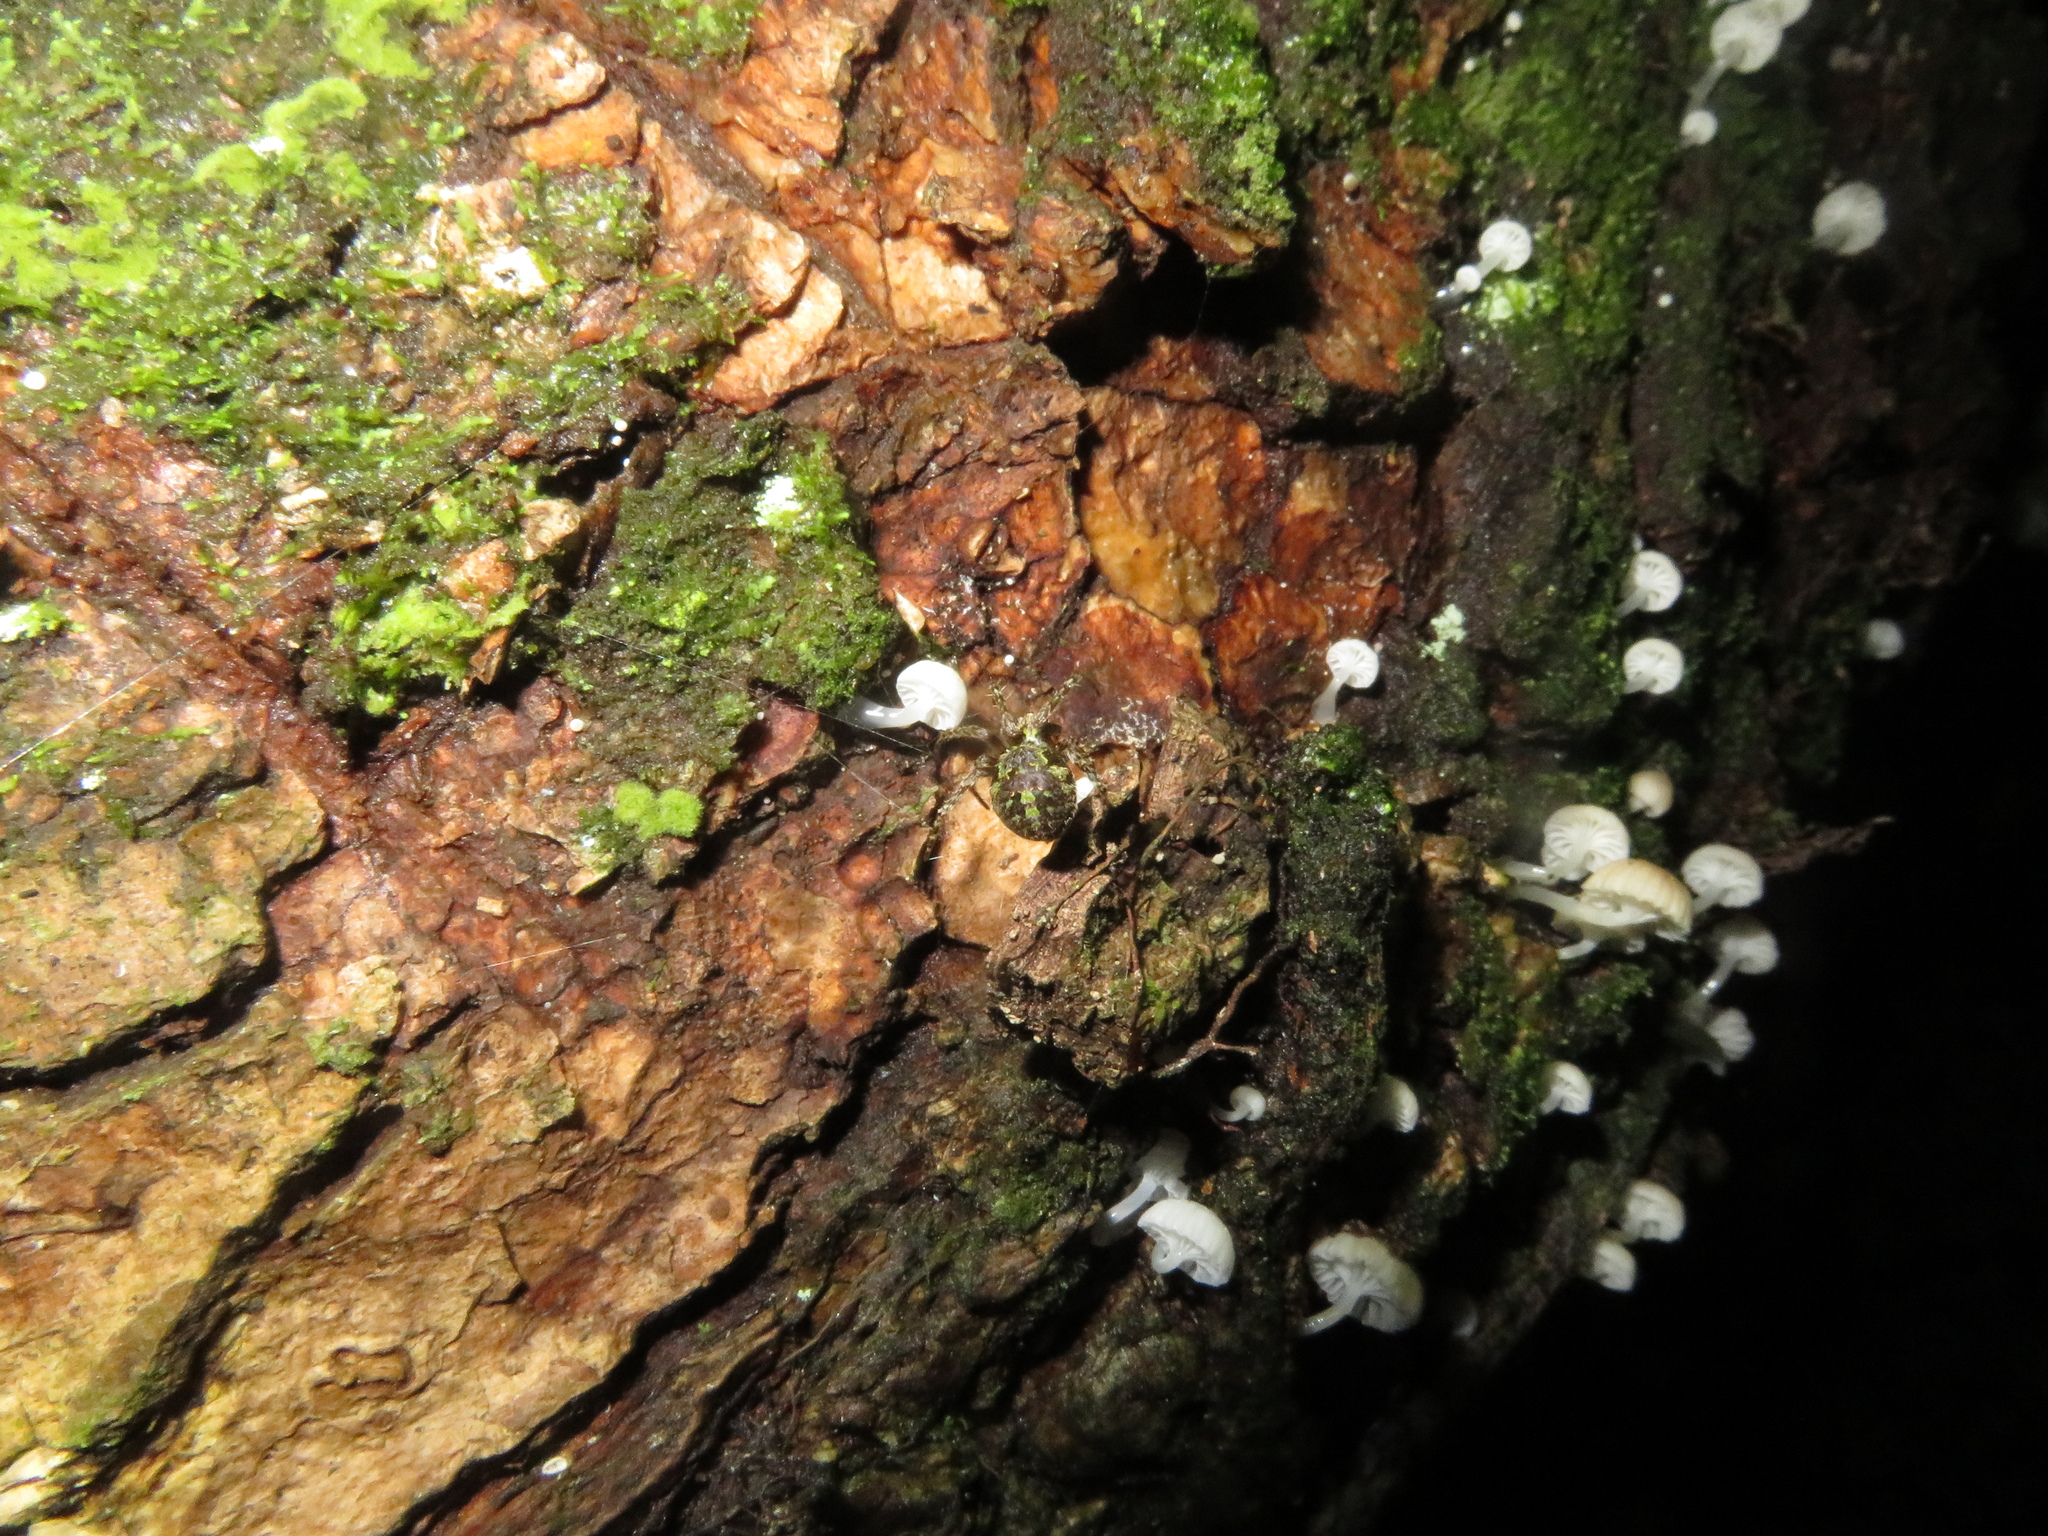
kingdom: Animalia
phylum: Arthropoda
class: Arachnida
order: Araneae
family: Araneidae
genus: Cryptaranea
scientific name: Cryptaranea atrihastula
